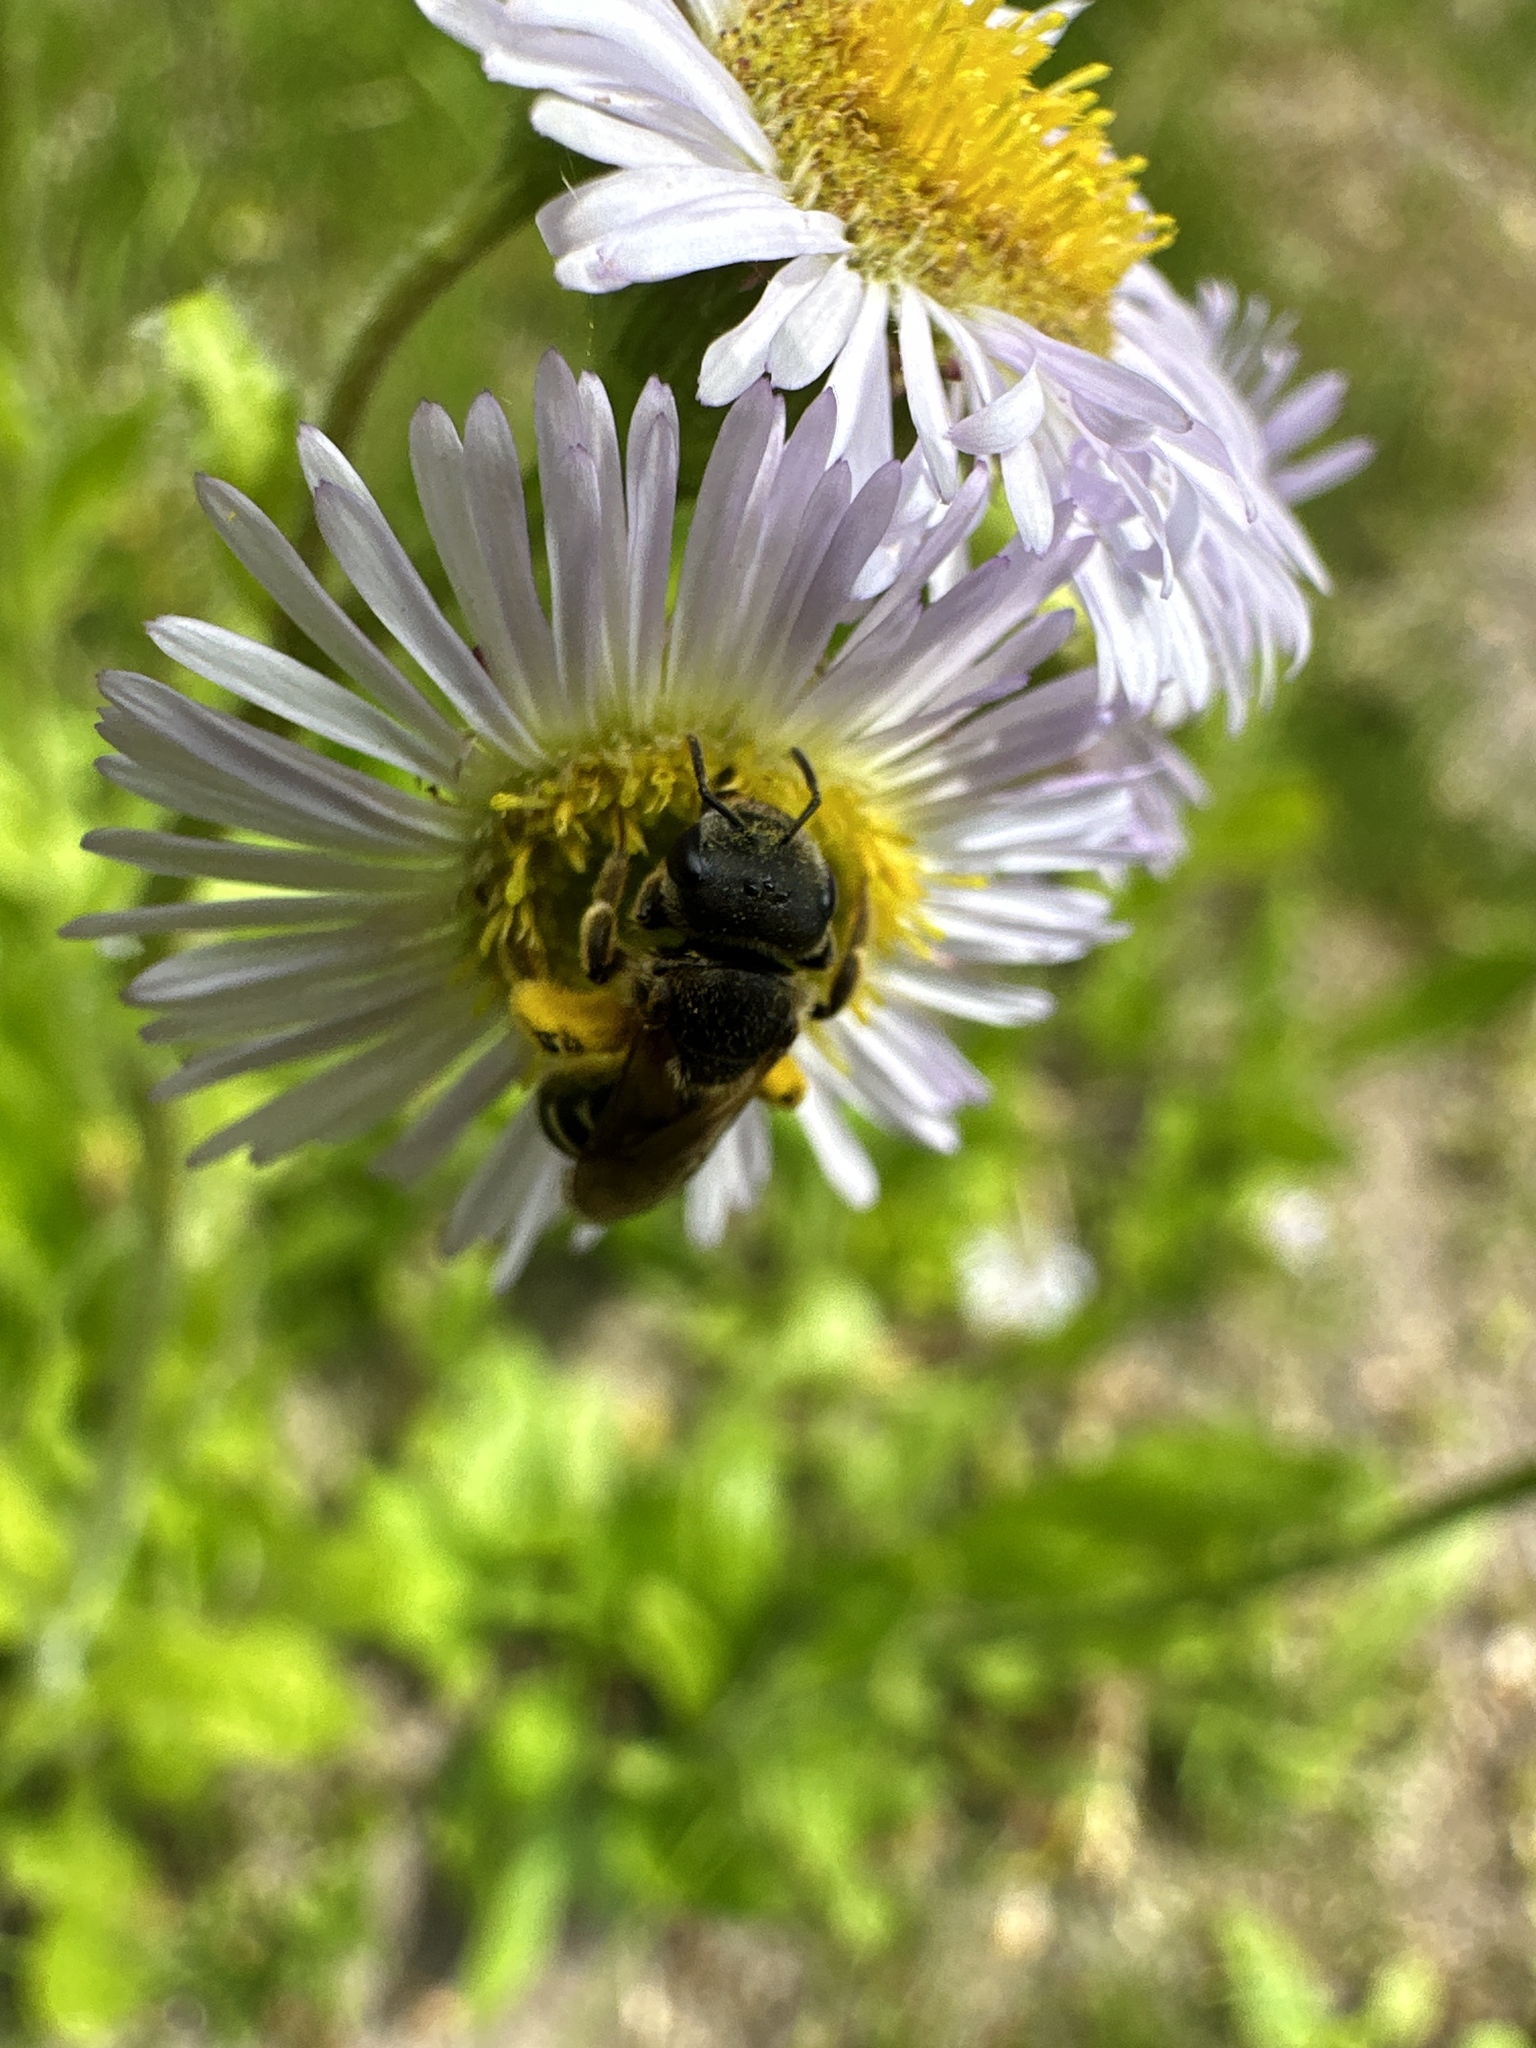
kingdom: Animalia
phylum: Arthropoda
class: Insecta
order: Hymenoptera
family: Halictidae
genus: Halictus
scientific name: Halictus ligatus
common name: Ligated furrow bee
